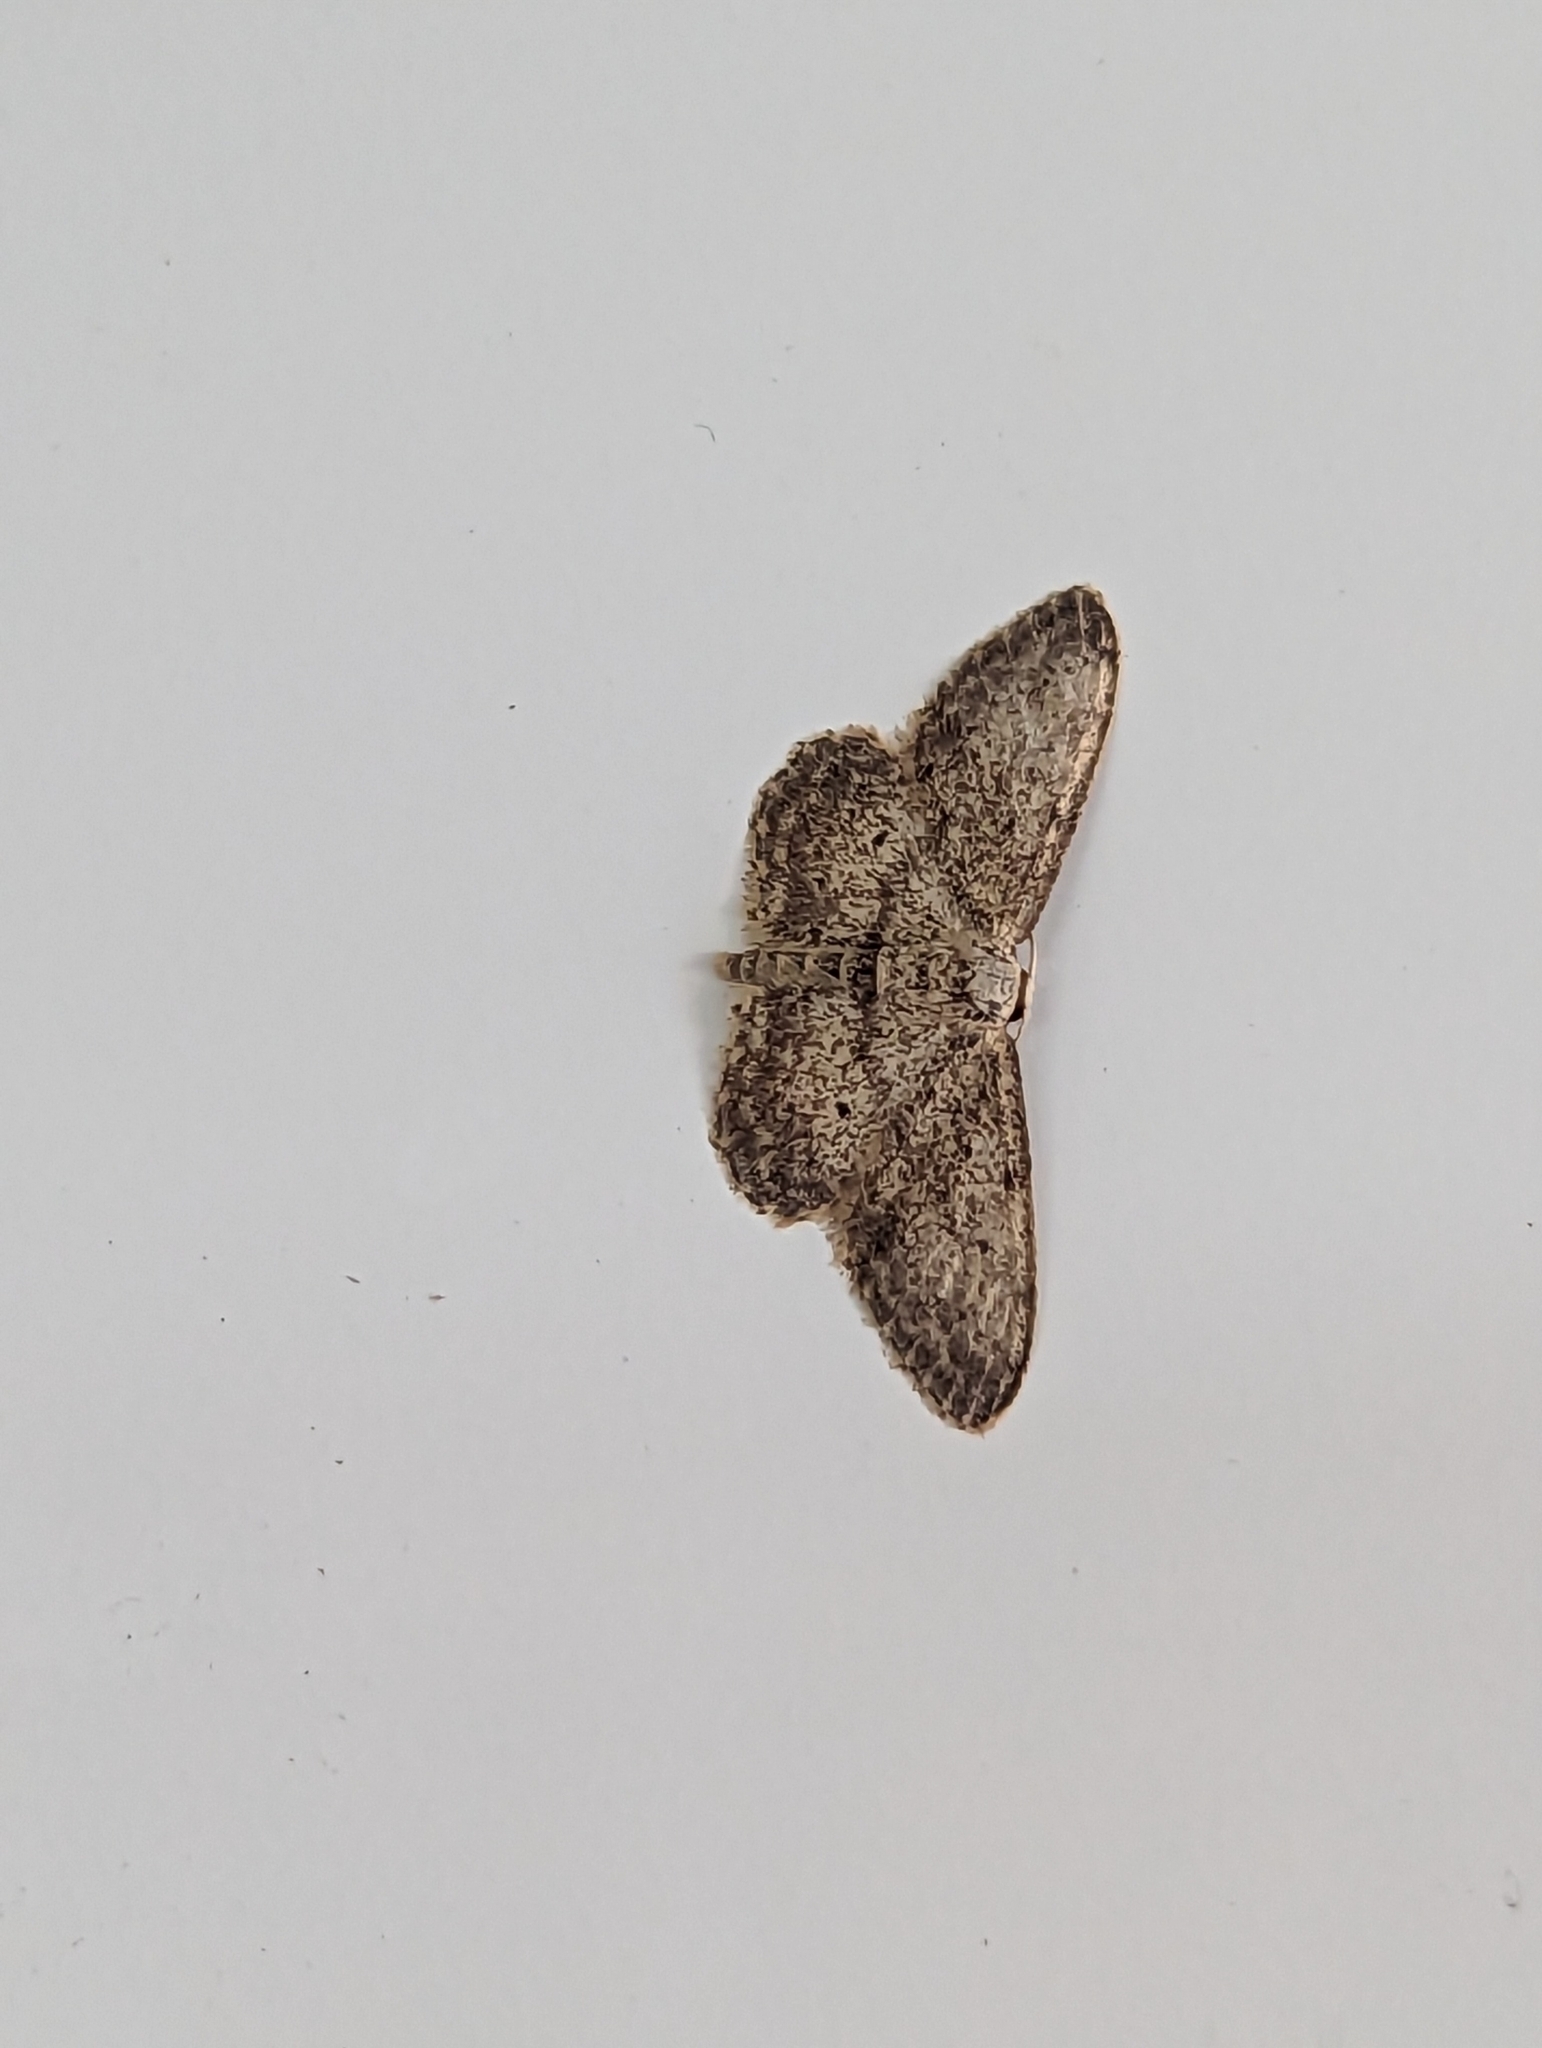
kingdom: Animalia
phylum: Arthropoda
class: Insecta
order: Lepidoptera
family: Geometridae
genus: Idaea
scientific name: Idaea seriata
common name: Small dusty wave
